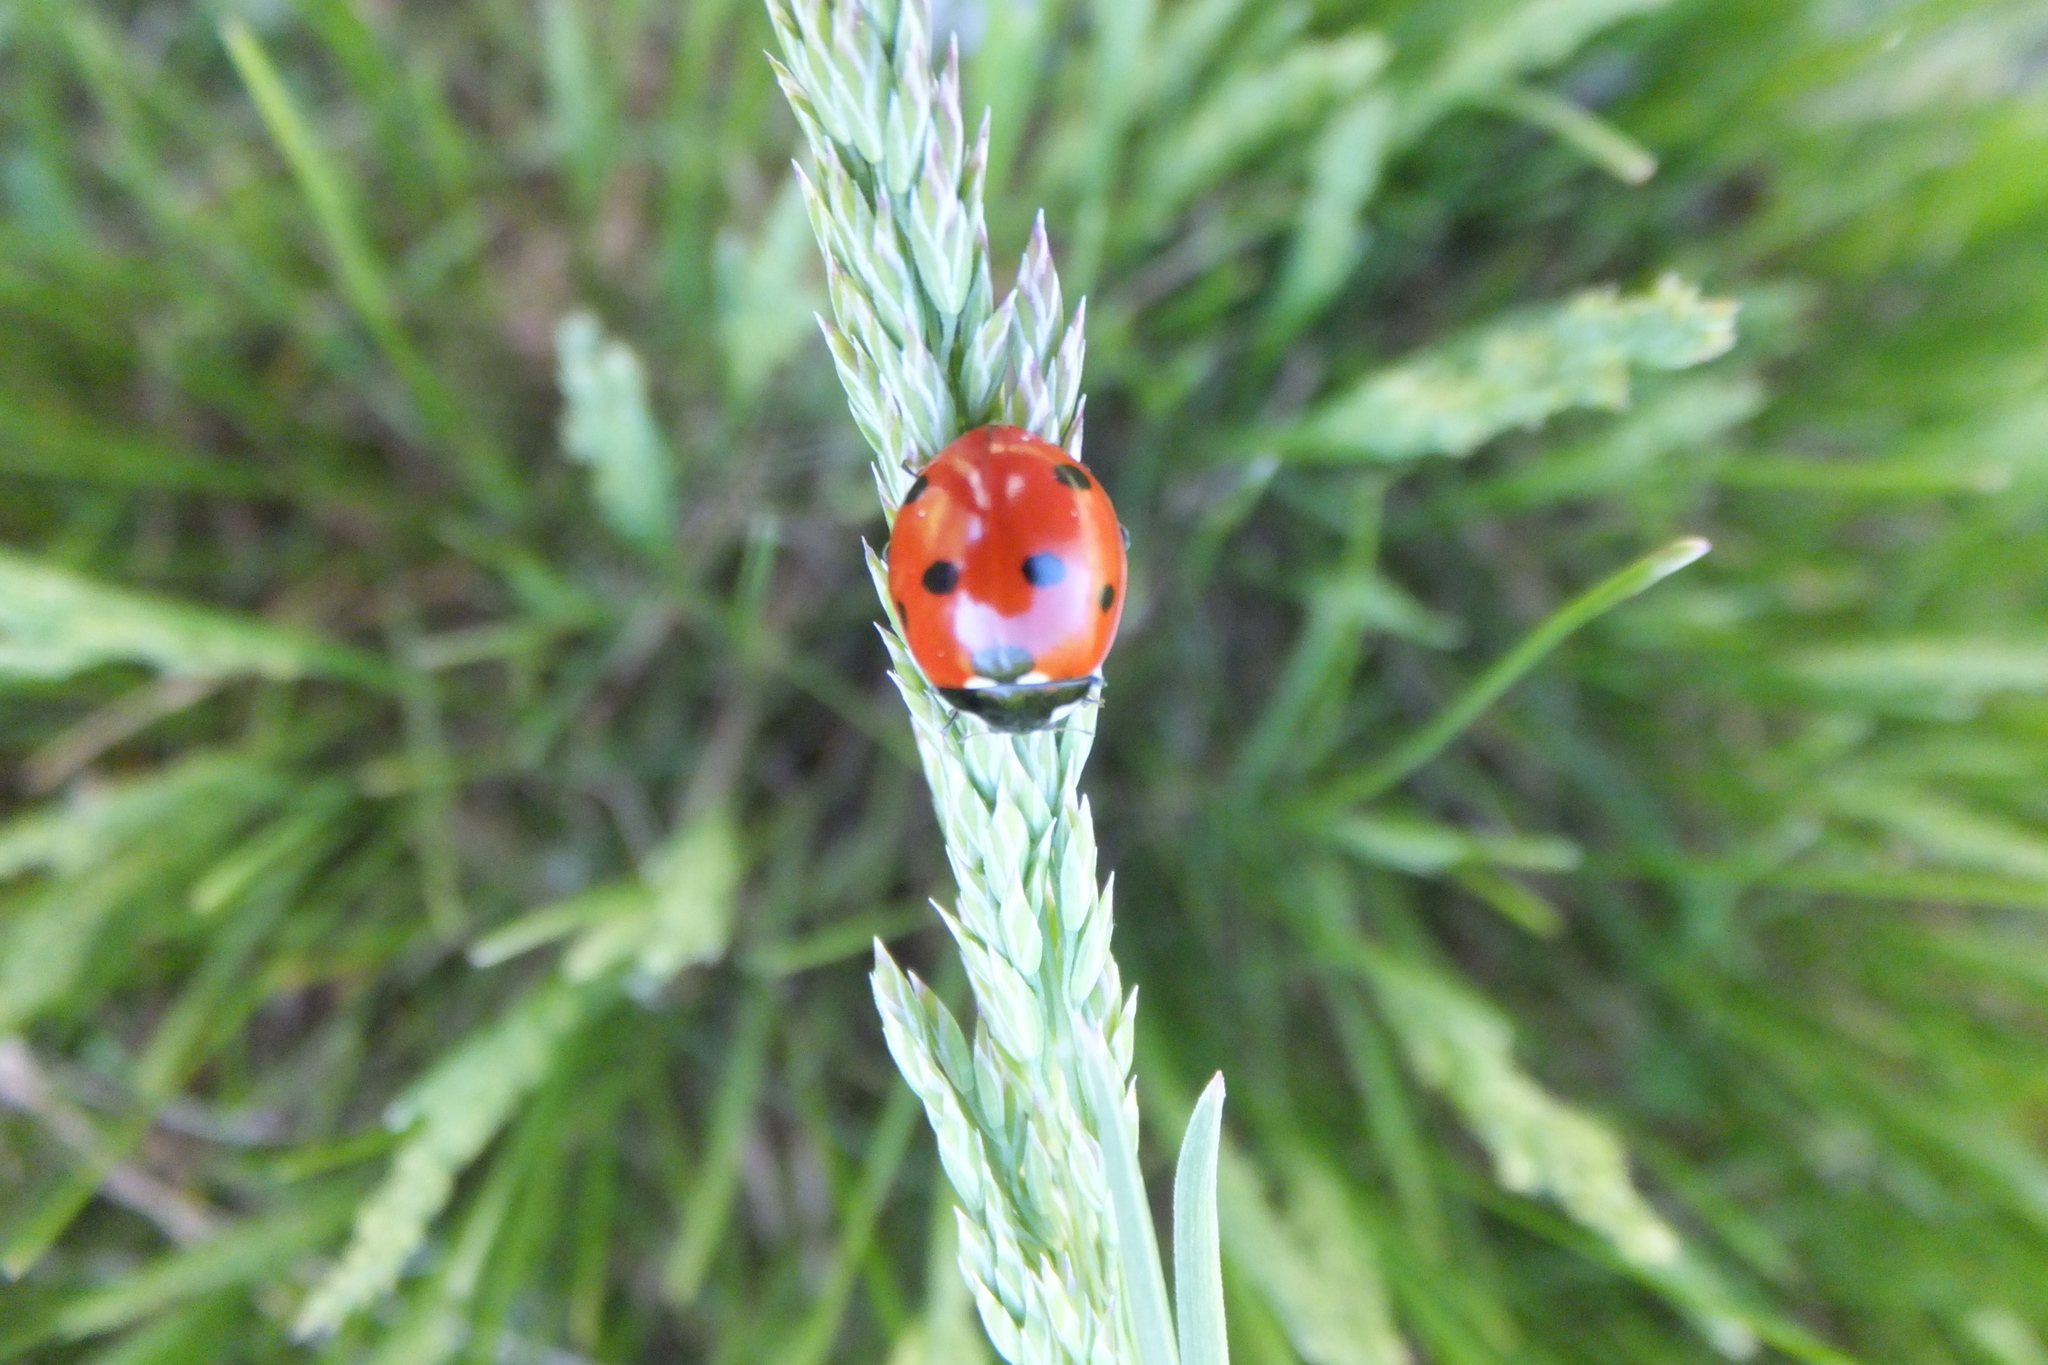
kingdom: Animalia
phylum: Arthropoda
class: Insecta
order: Coleoptera
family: Coccinellidae
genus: Coccinella
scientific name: Coccinella septempunctata
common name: Sevenspotted lady beetle
